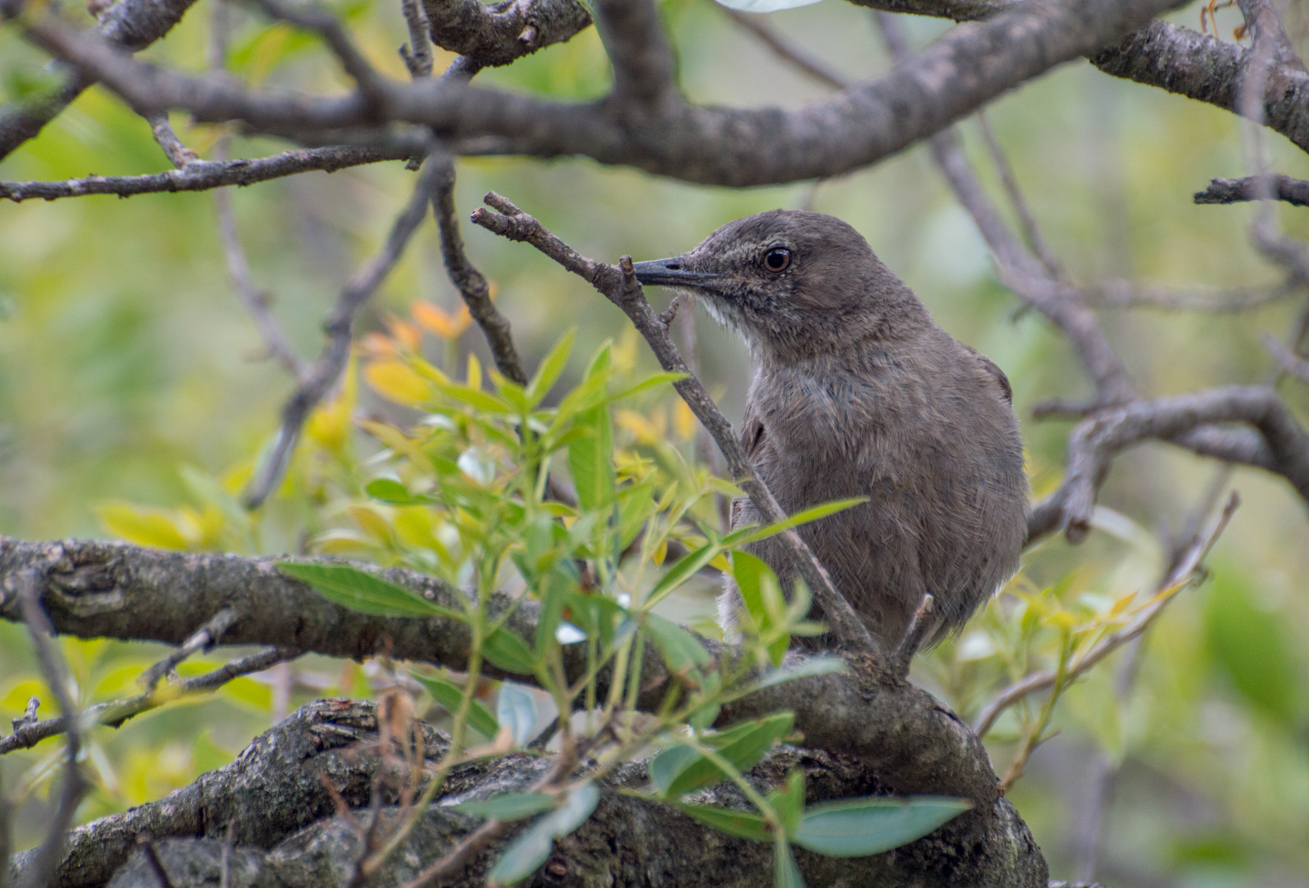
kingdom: Animalia
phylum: Chordata
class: Aves
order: Passeriformes
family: Tyrannidae
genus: Agriornis
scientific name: Agriornis montanus
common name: Black-billed shrike-tyrant
